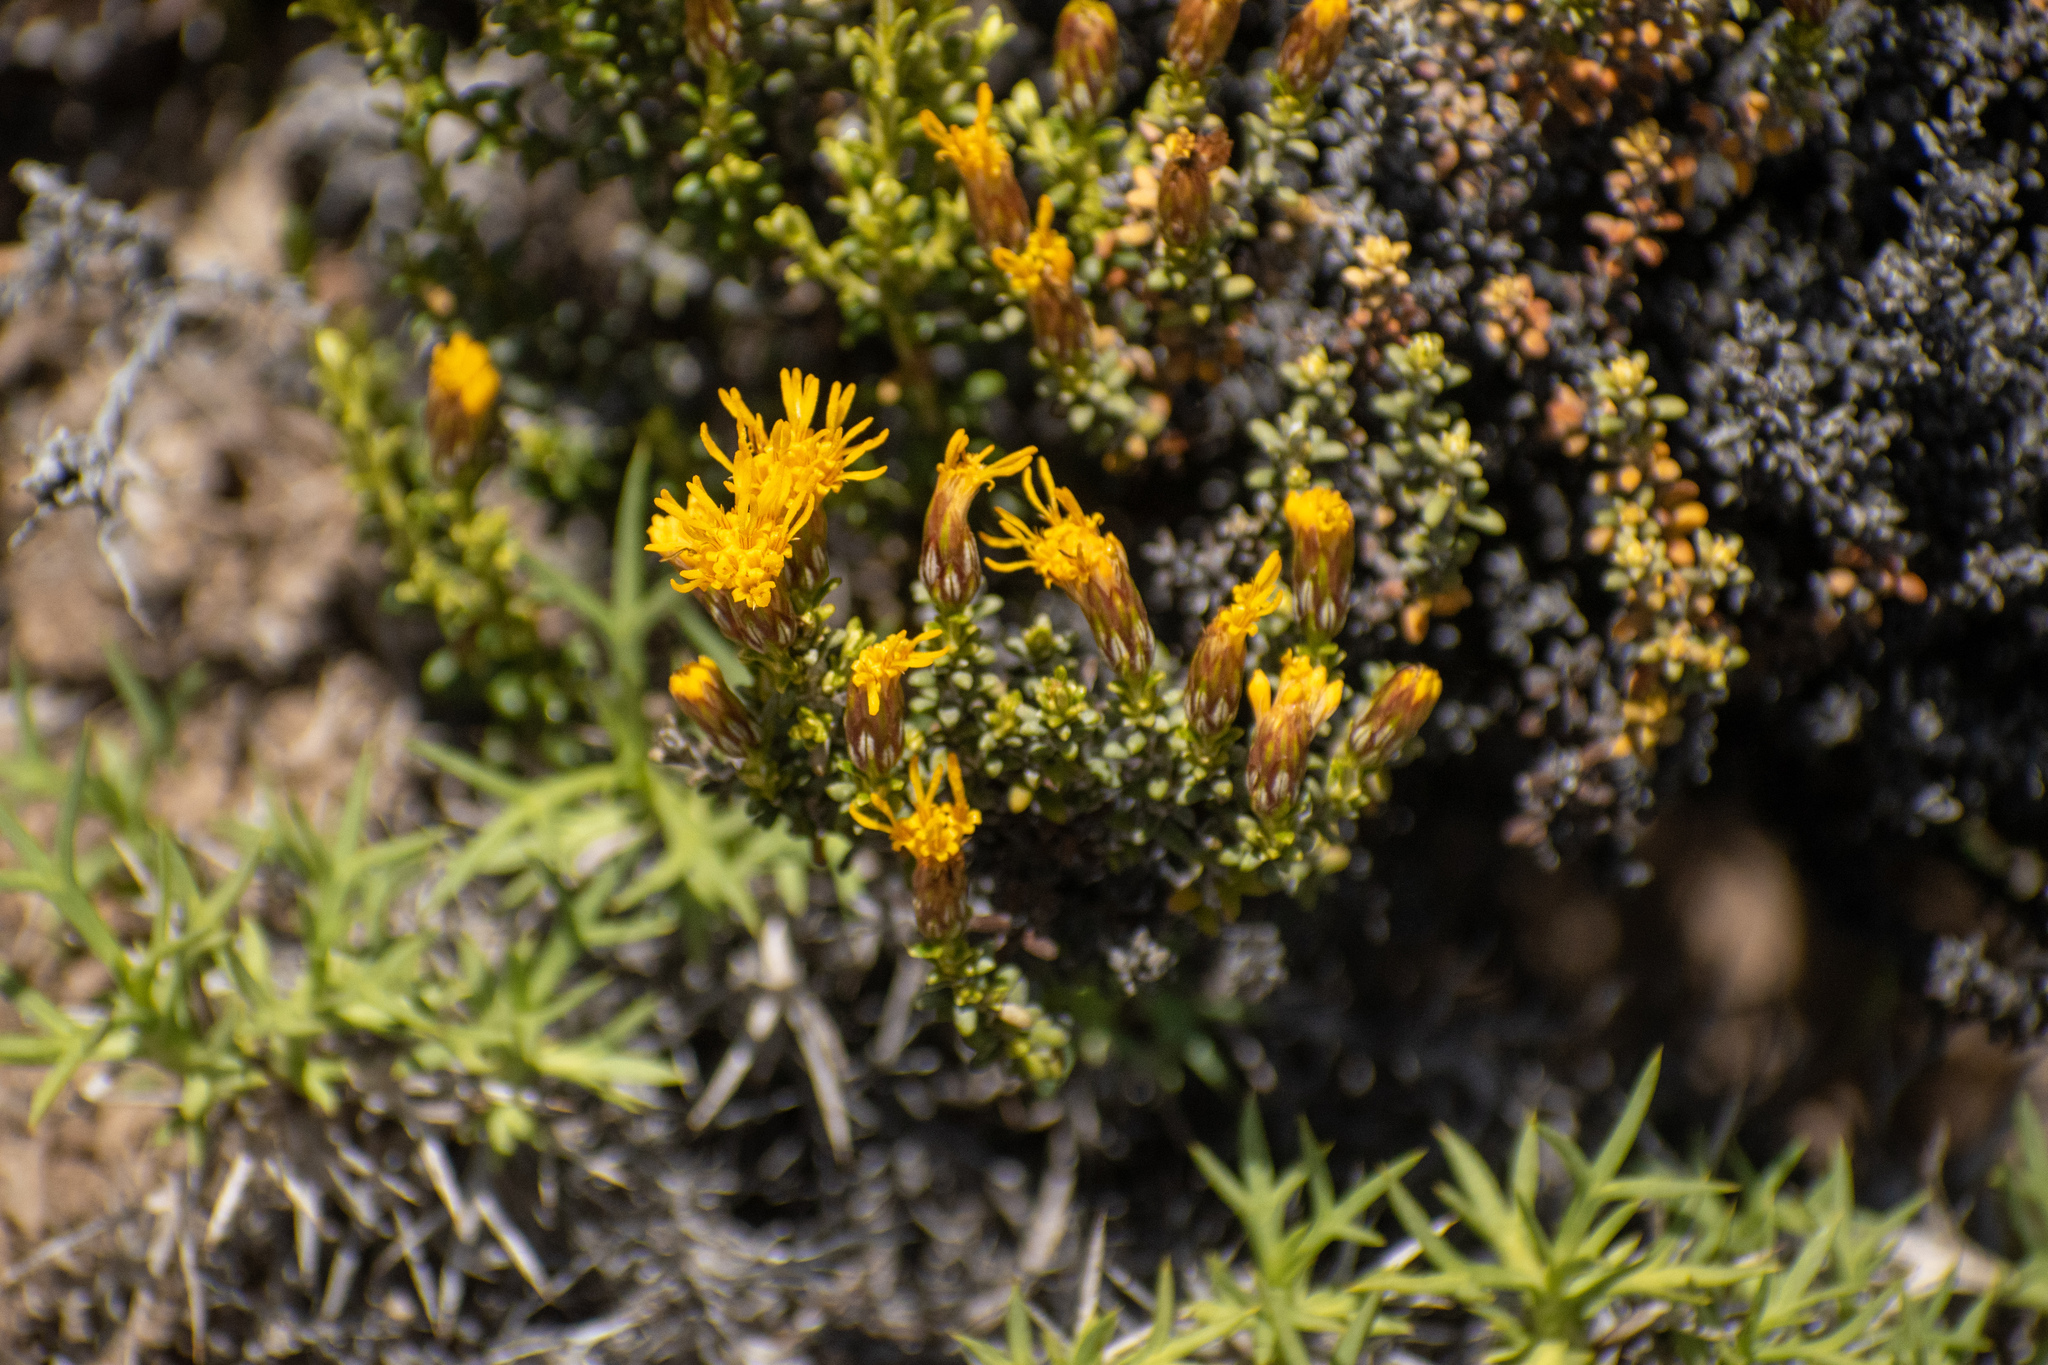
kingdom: Plantae
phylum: Tracheophyta
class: Magnoliopsida
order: Asterales
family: Asteraceae
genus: Nardophyllum
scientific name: Nardophyllum bryoides
